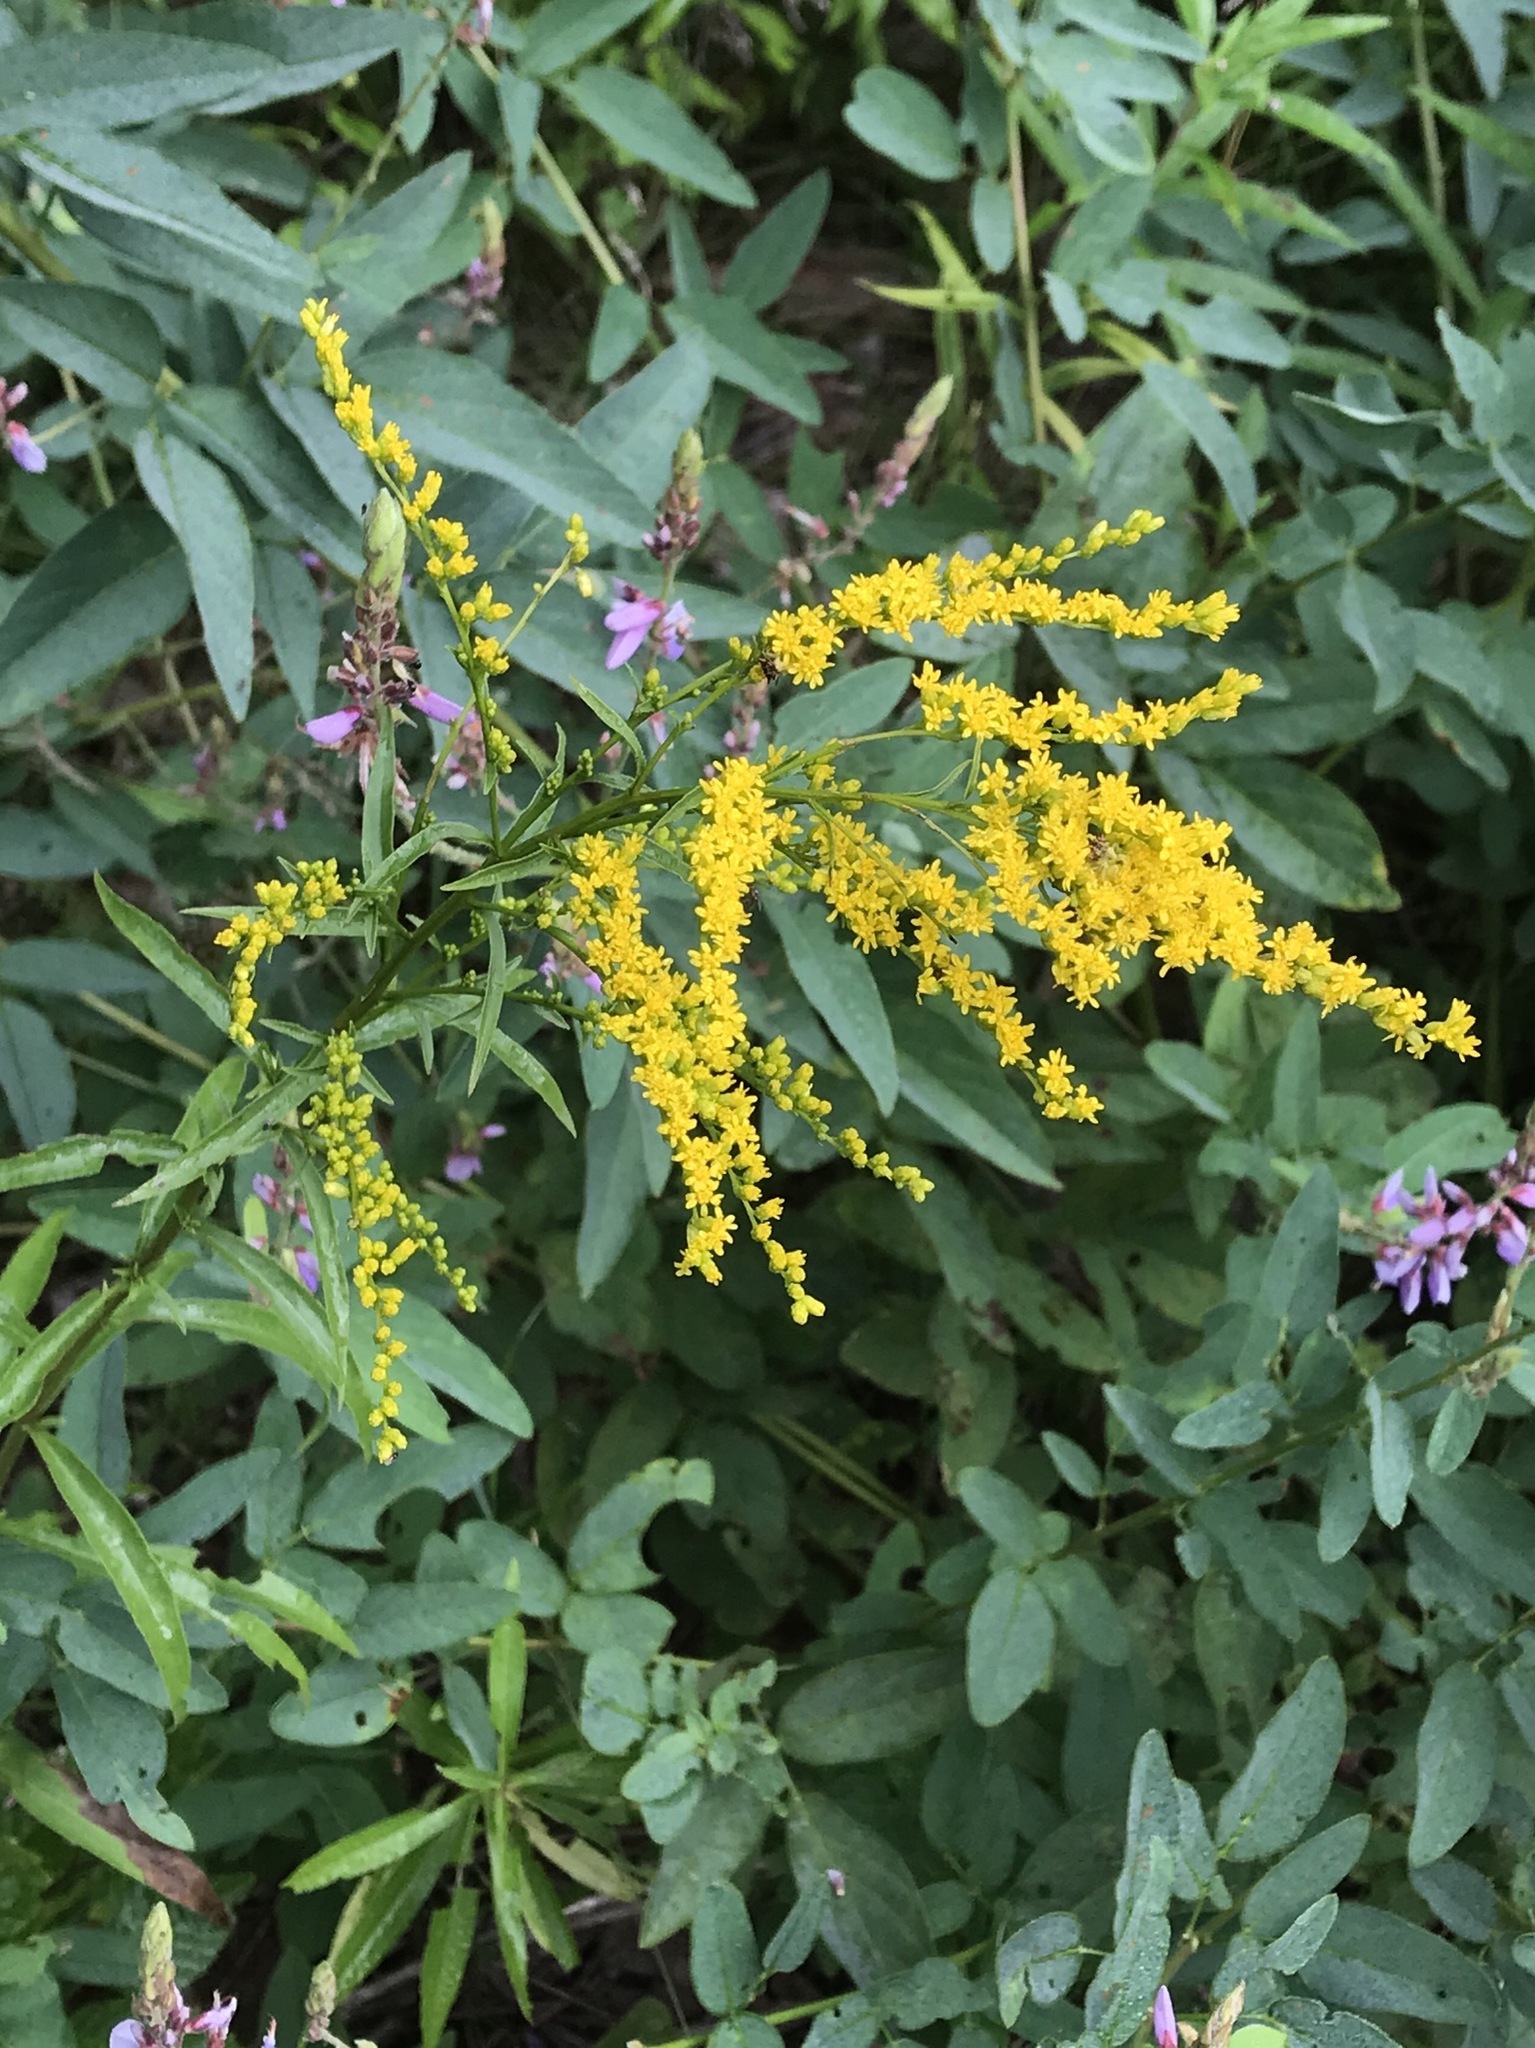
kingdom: Plantae
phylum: Tracheophyta
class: Magnoliopsida
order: Asterales
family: Asteraceae
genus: Solidago
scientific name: Solidago juncea
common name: Early goldenrod
